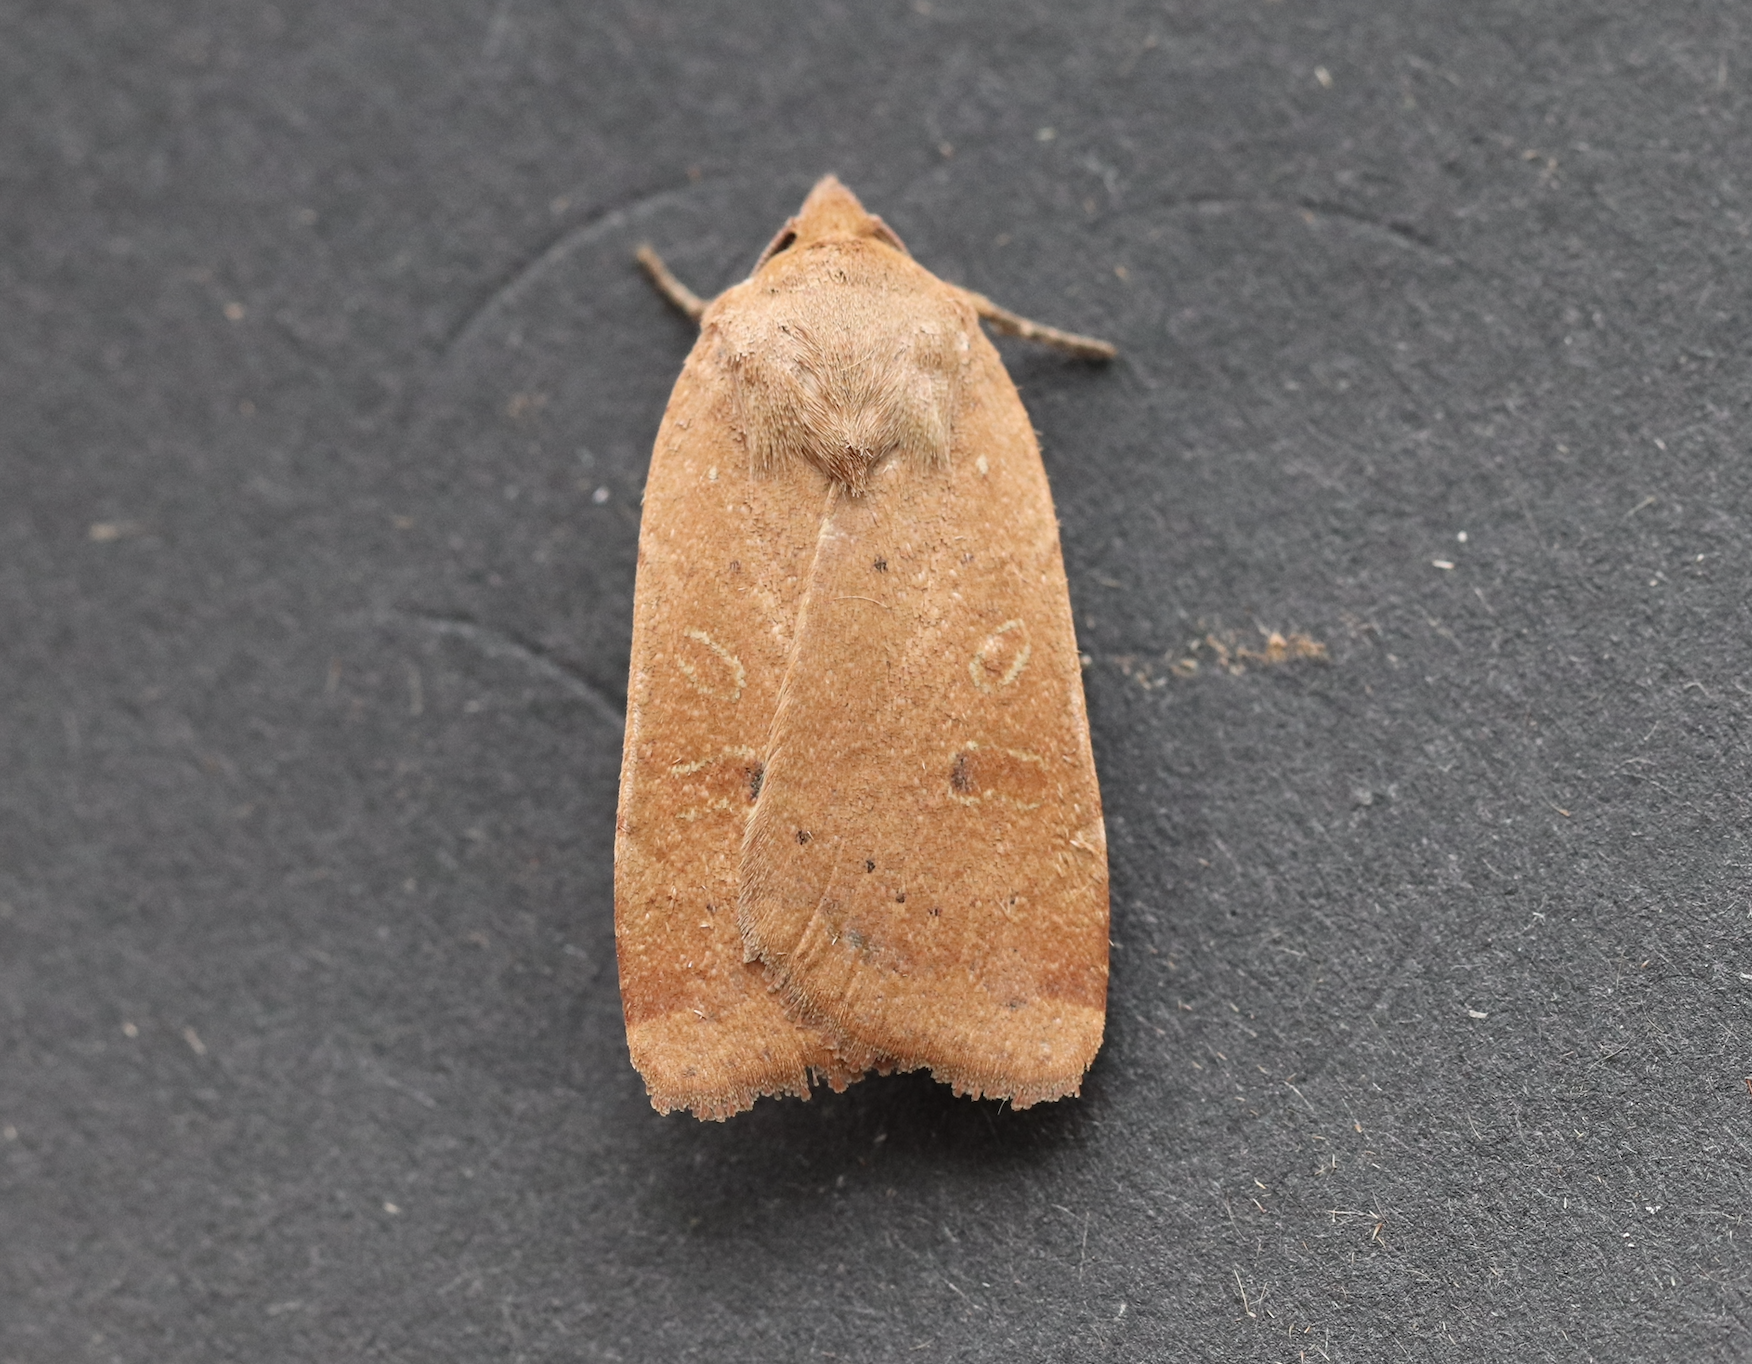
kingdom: Animalia
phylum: Arthropoda
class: Insecta
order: Lepidoptera
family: Noctuidae
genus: Noctua
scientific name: Noctua comes
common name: Lesser yellow underwing
